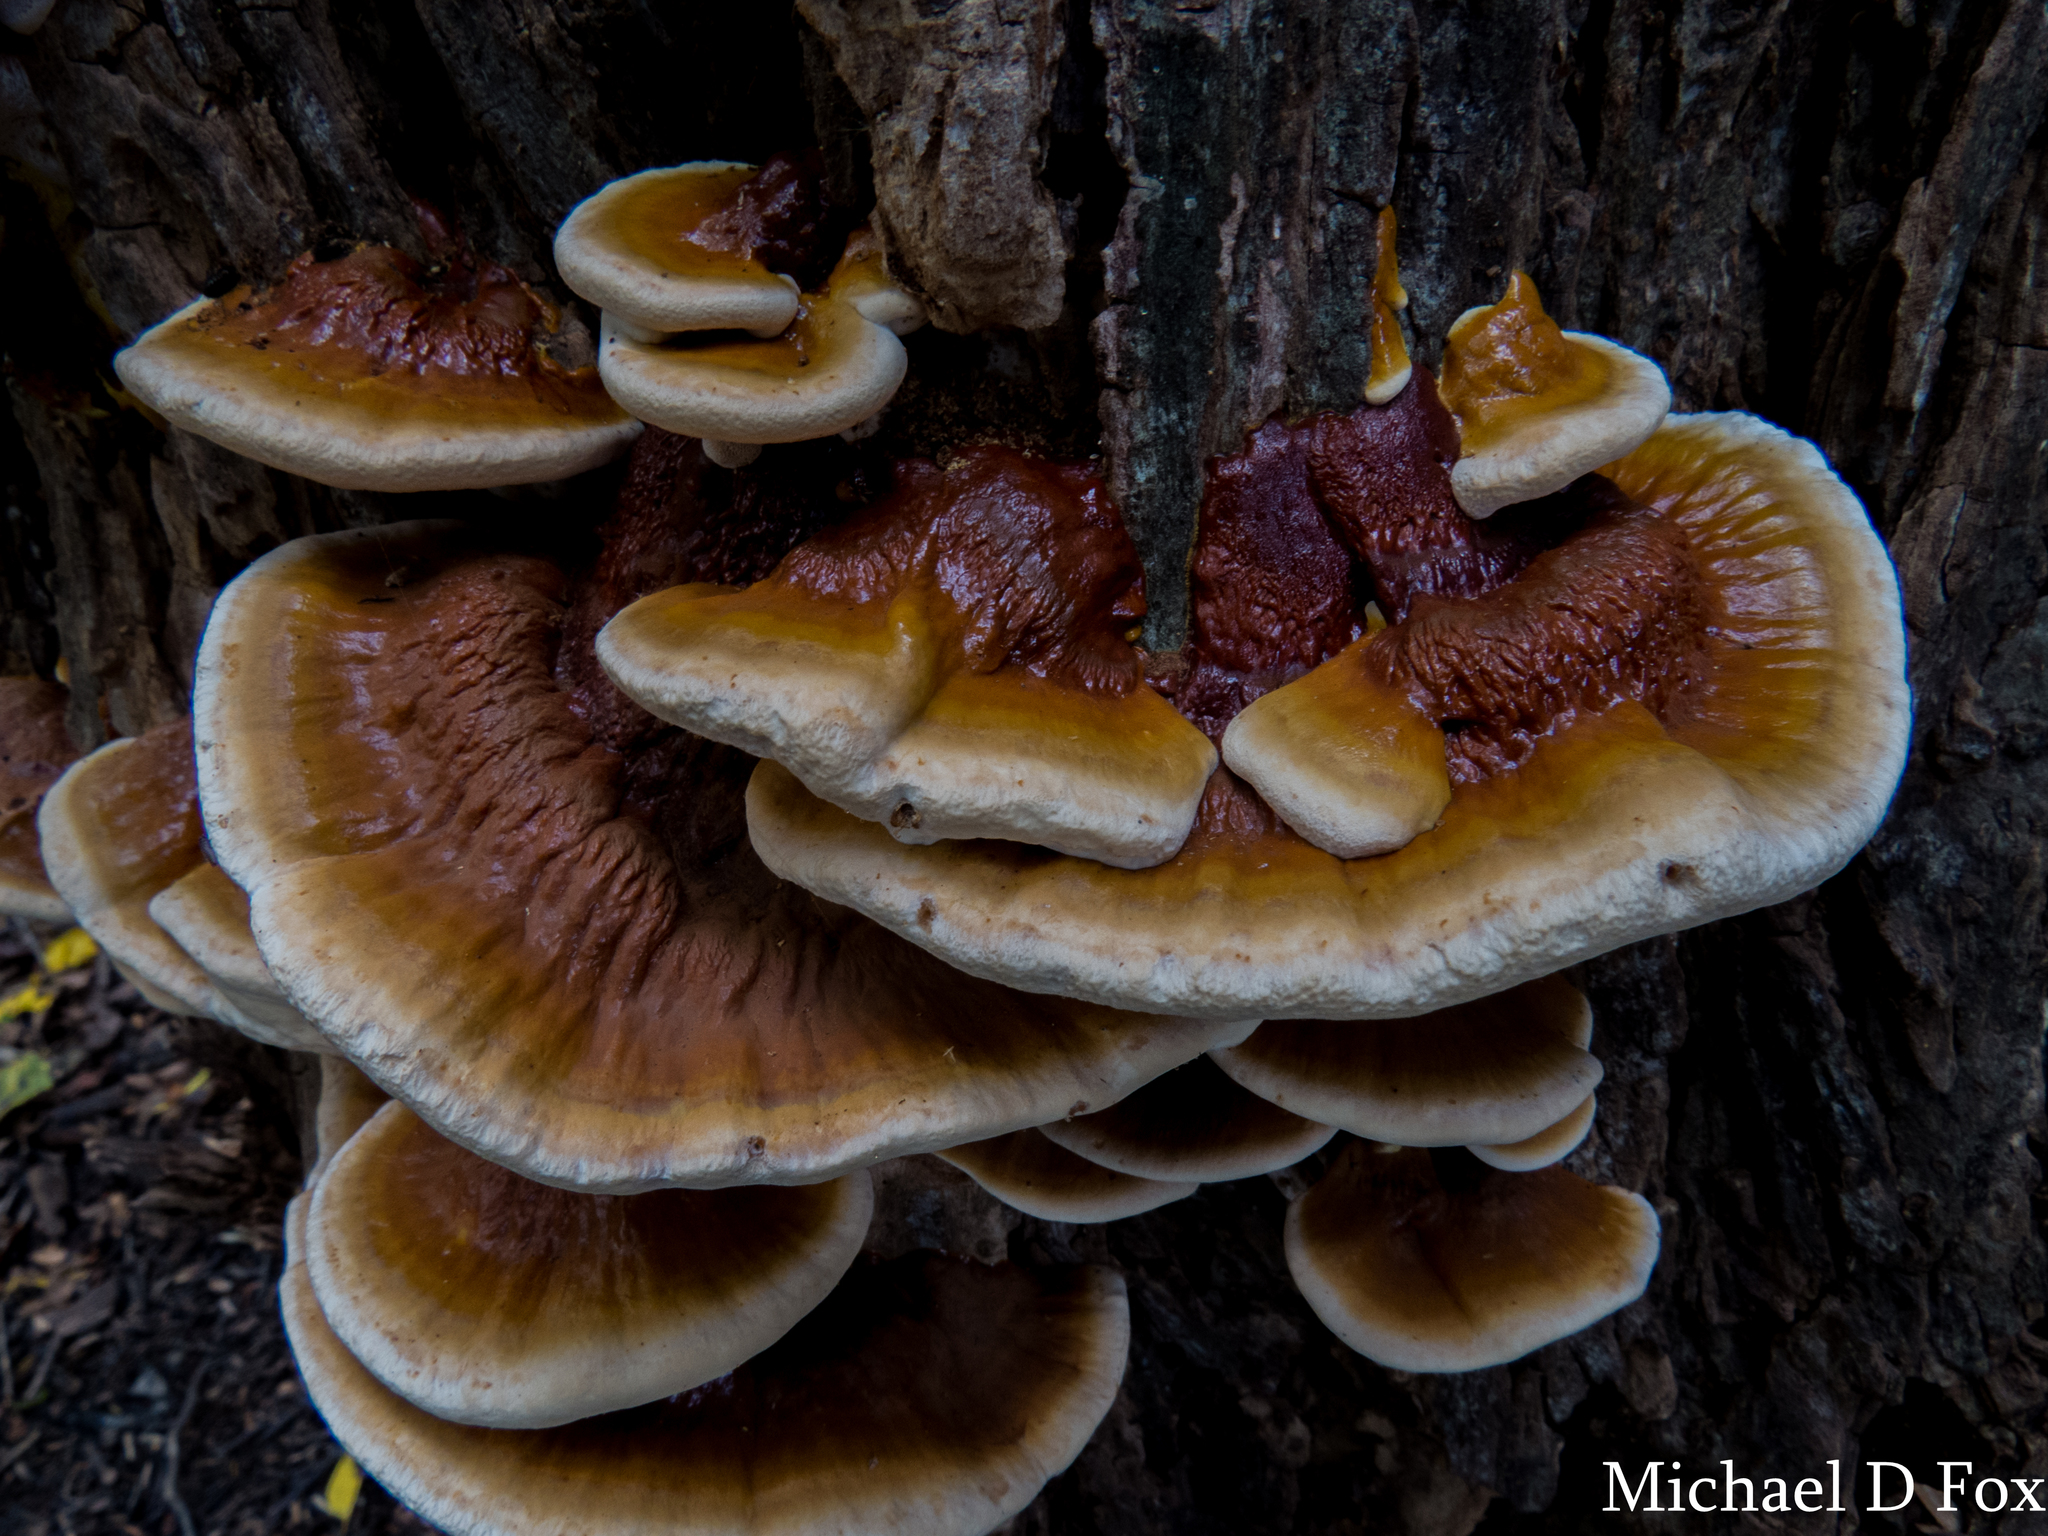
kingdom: Fungi
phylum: Basidiomycota
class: Agaricomycetes
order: Polyporales
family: Polyporaceae
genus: Ganoderma
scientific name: Ganoderma resinaceum
